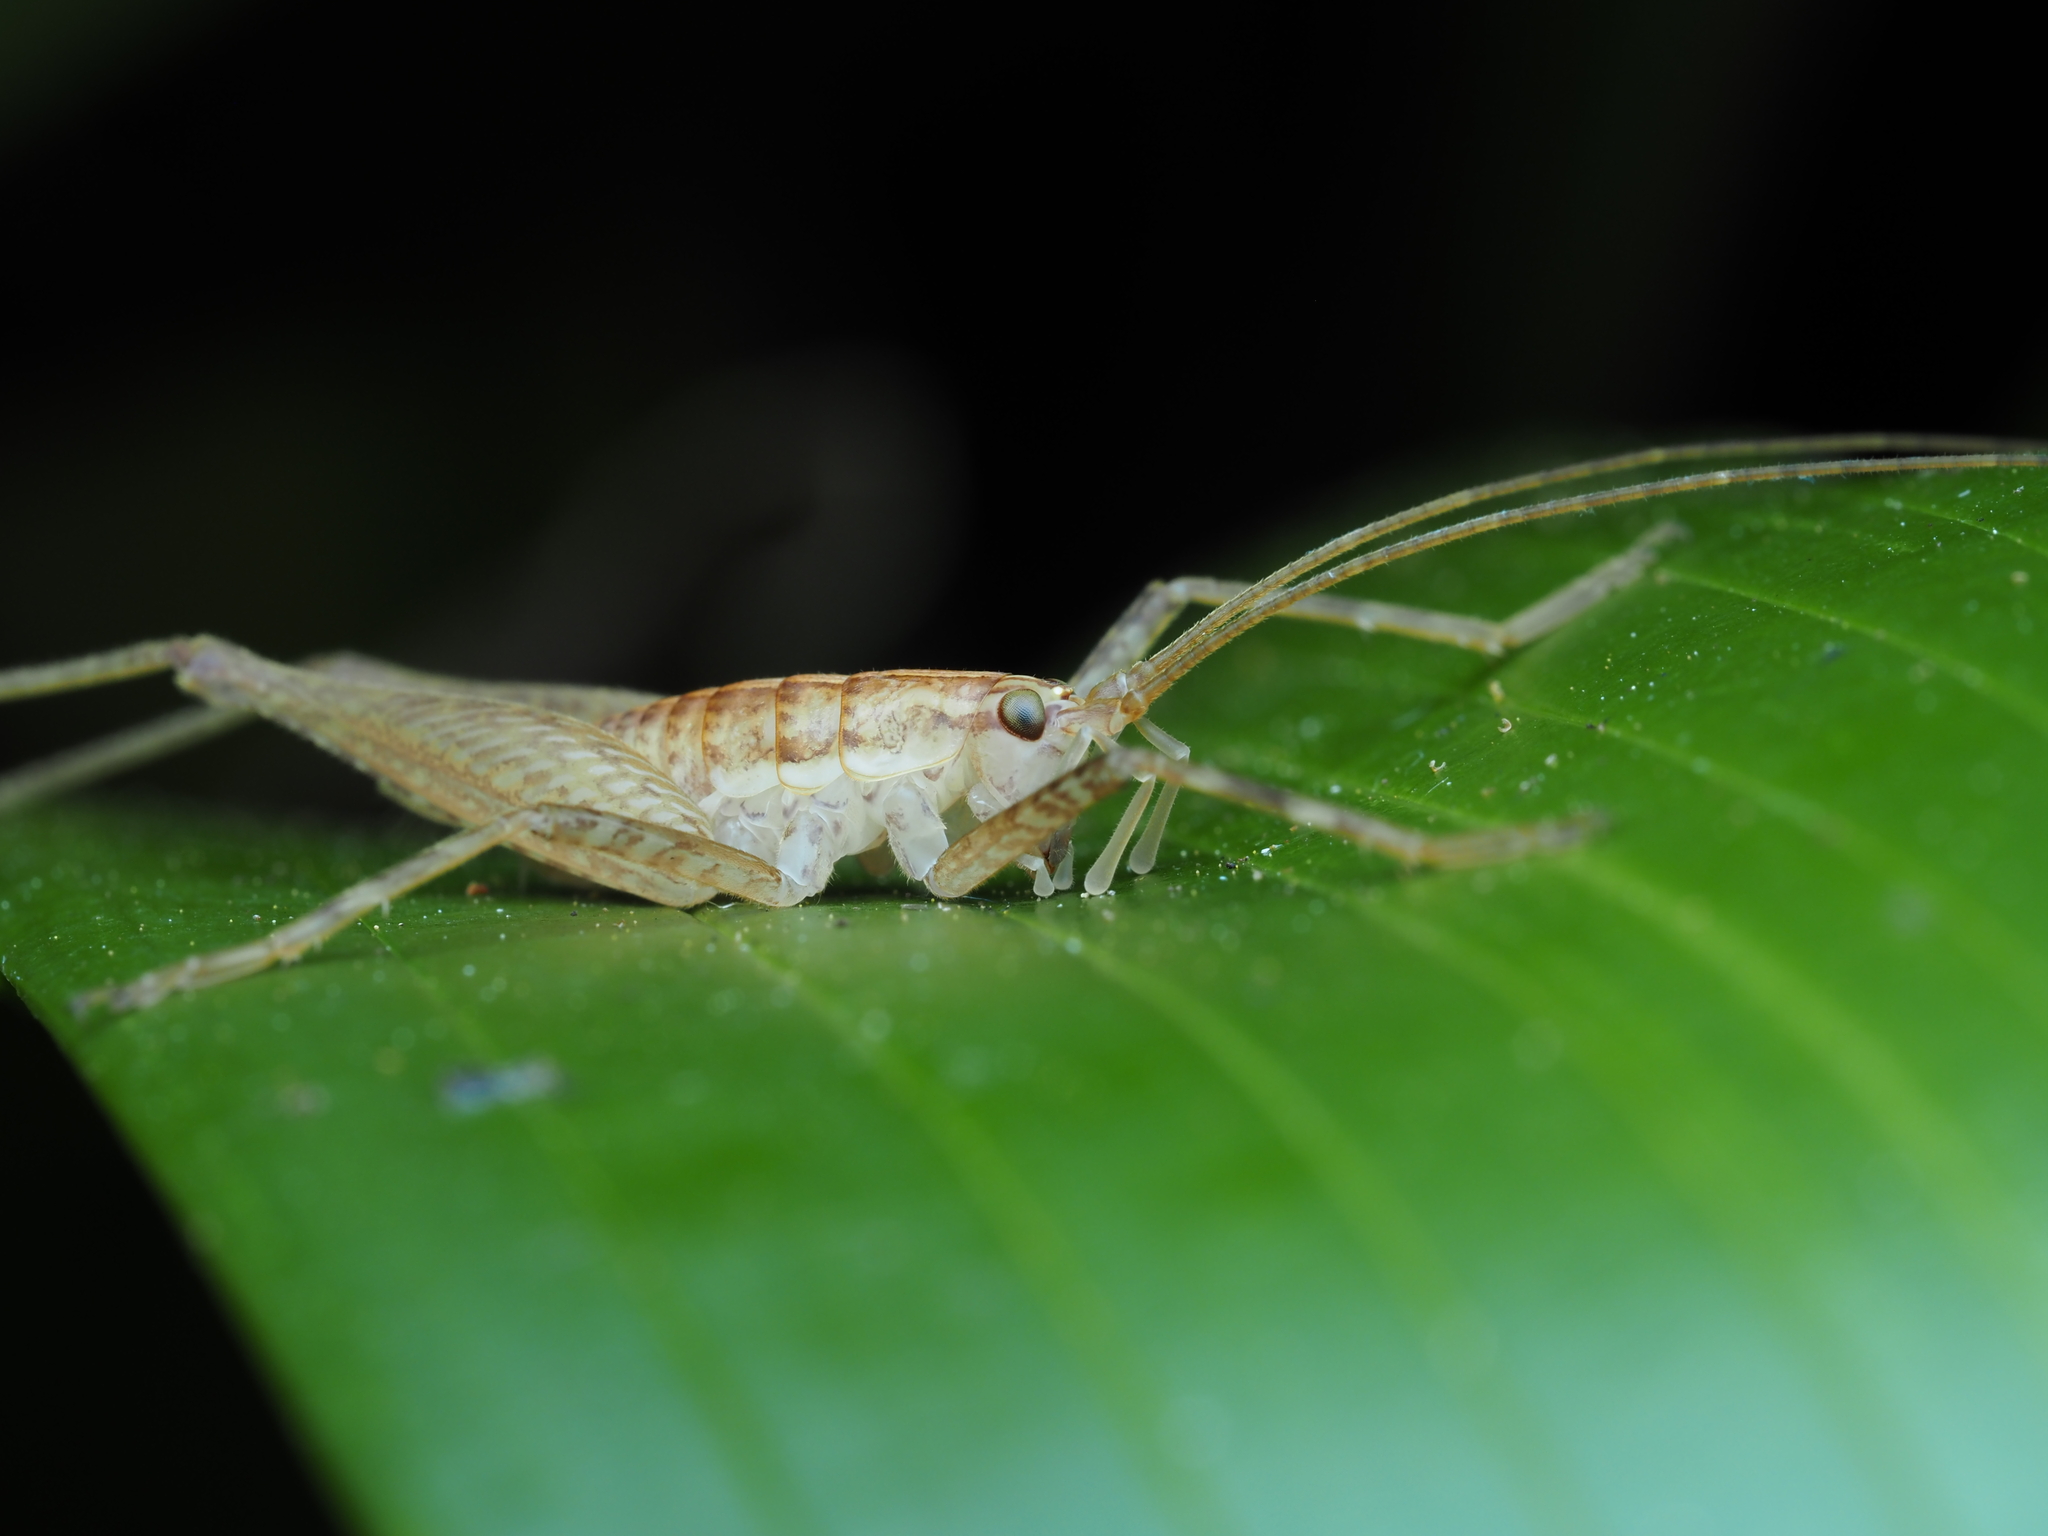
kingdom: Animalia
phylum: Arthropoda
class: Insecta
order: Orthoptera
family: Rhaphidophoridae
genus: Talitropsis
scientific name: Talitropsis poduroides
